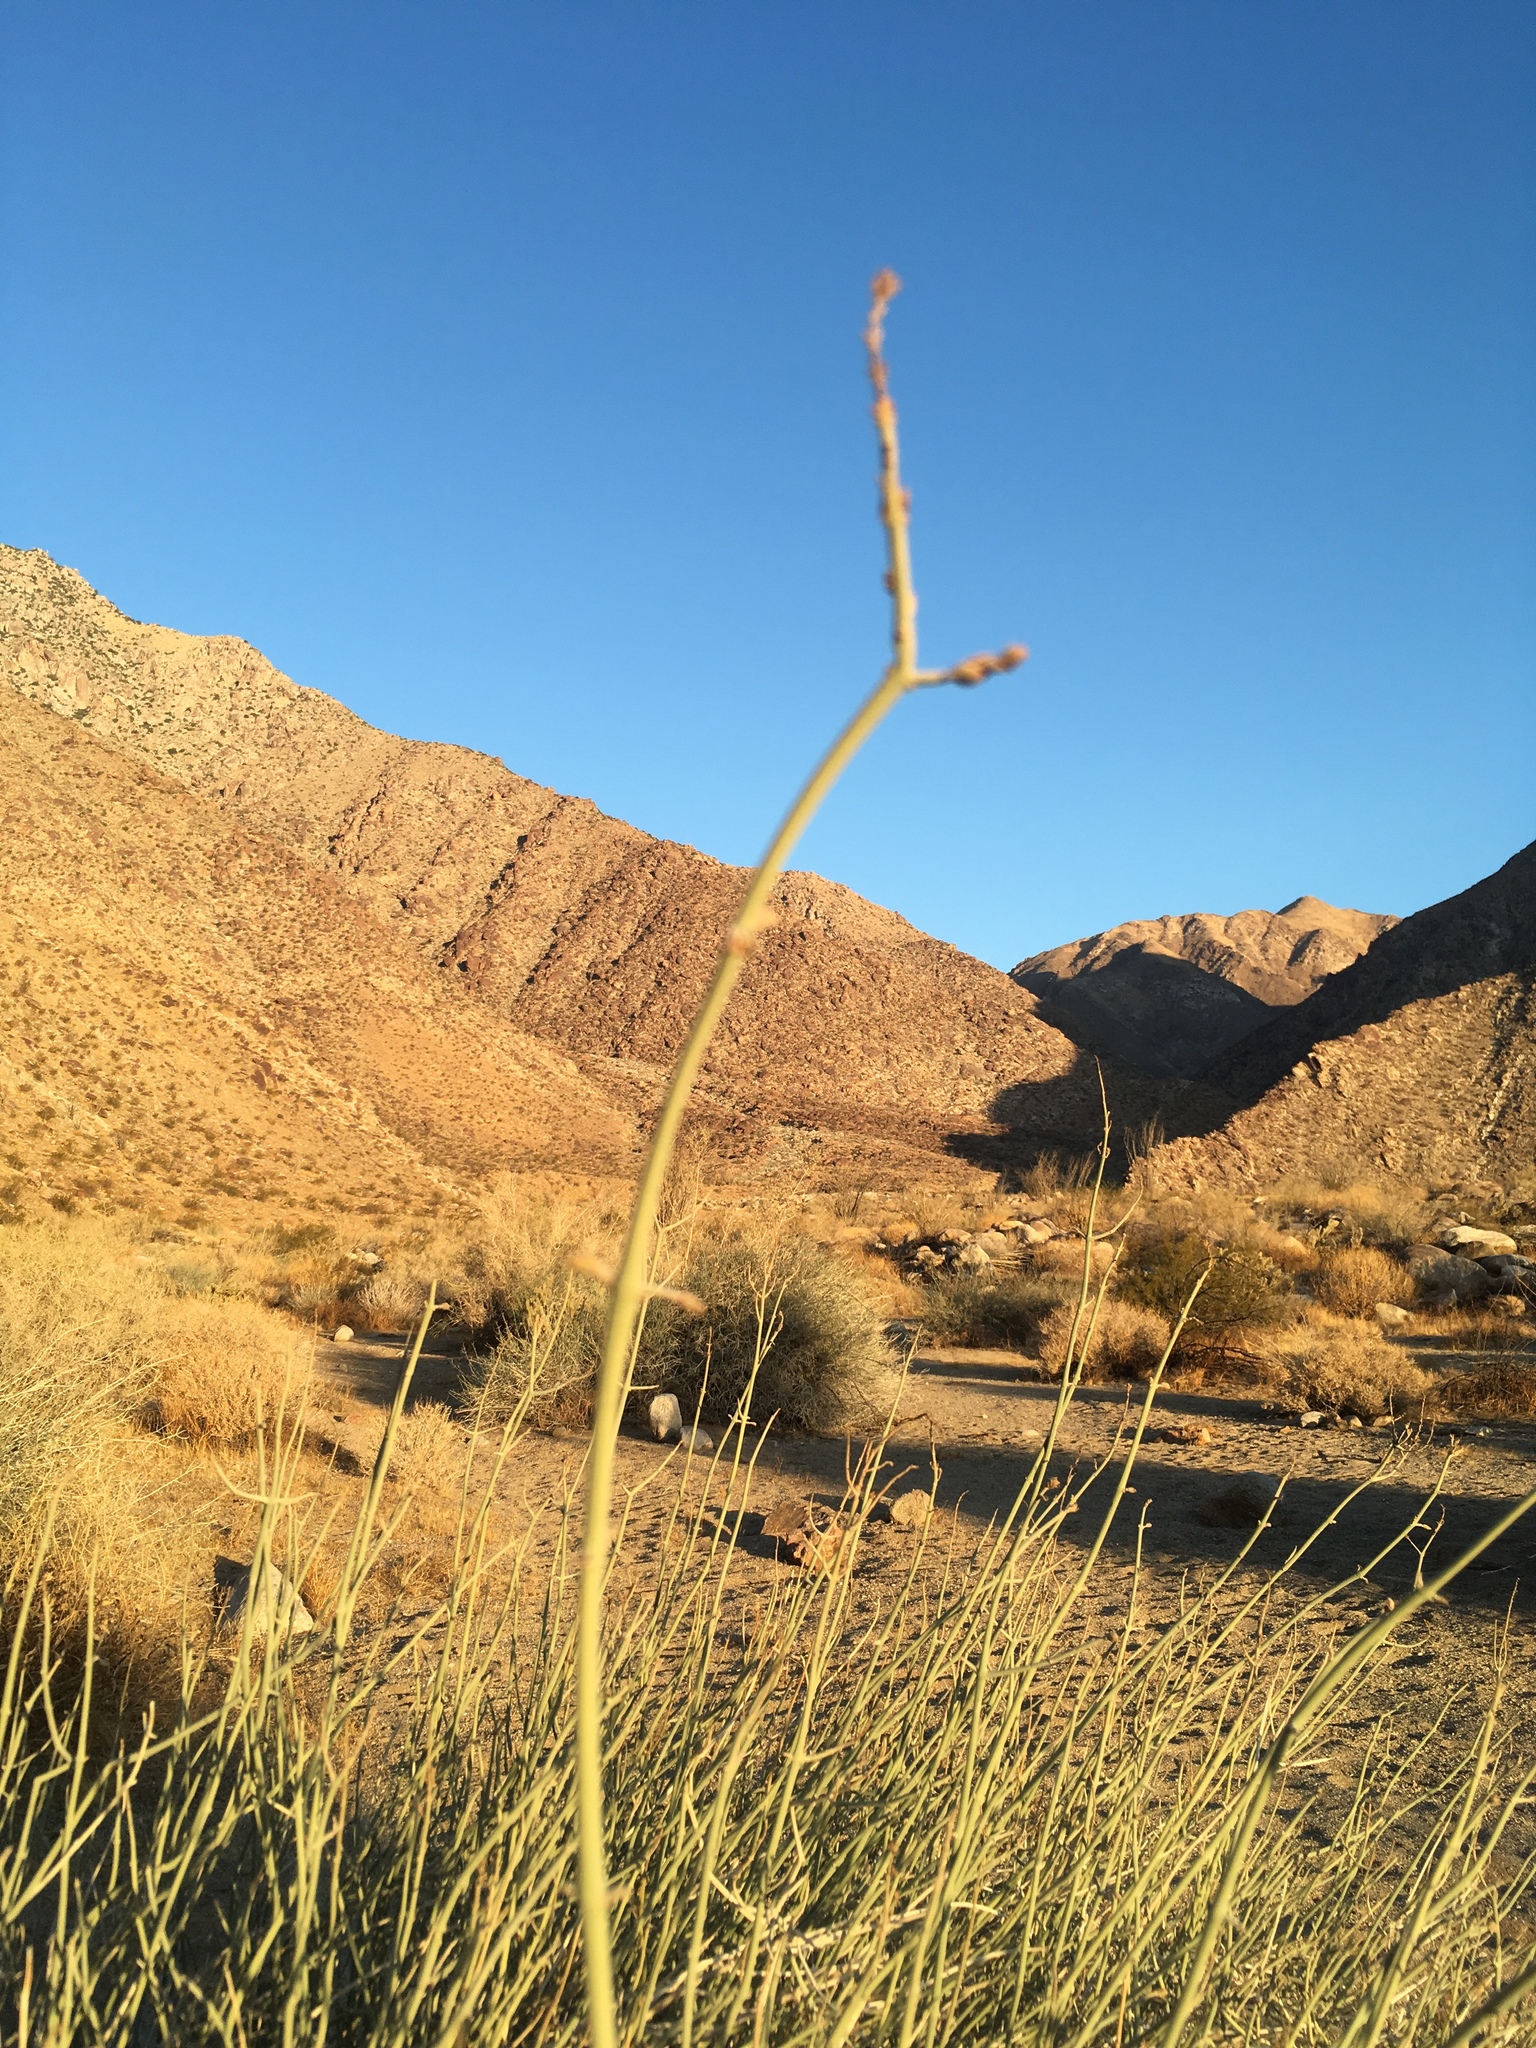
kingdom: Plantae
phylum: Tracheophyta
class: Magnoliopsida
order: Lamiales
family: Acanthaceae
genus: Justicia
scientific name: Justicia californica
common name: Chuparosa-honeysuckle
